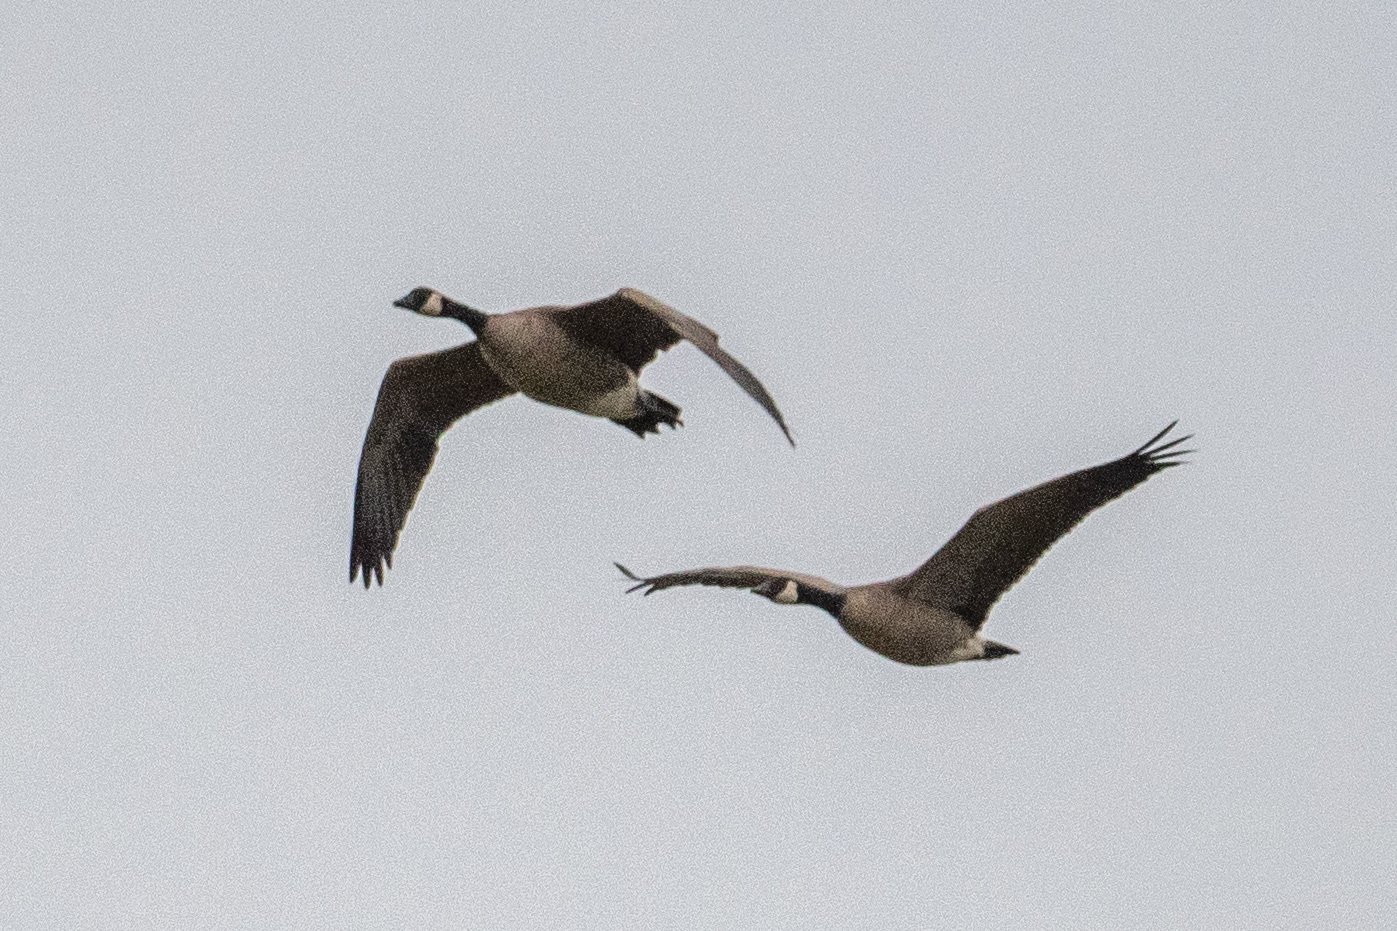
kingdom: Animalia
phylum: Chordata
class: Aves
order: Anseriformes
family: Anatidae
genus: Branta
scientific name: Branta canadensis
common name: Canada goose
